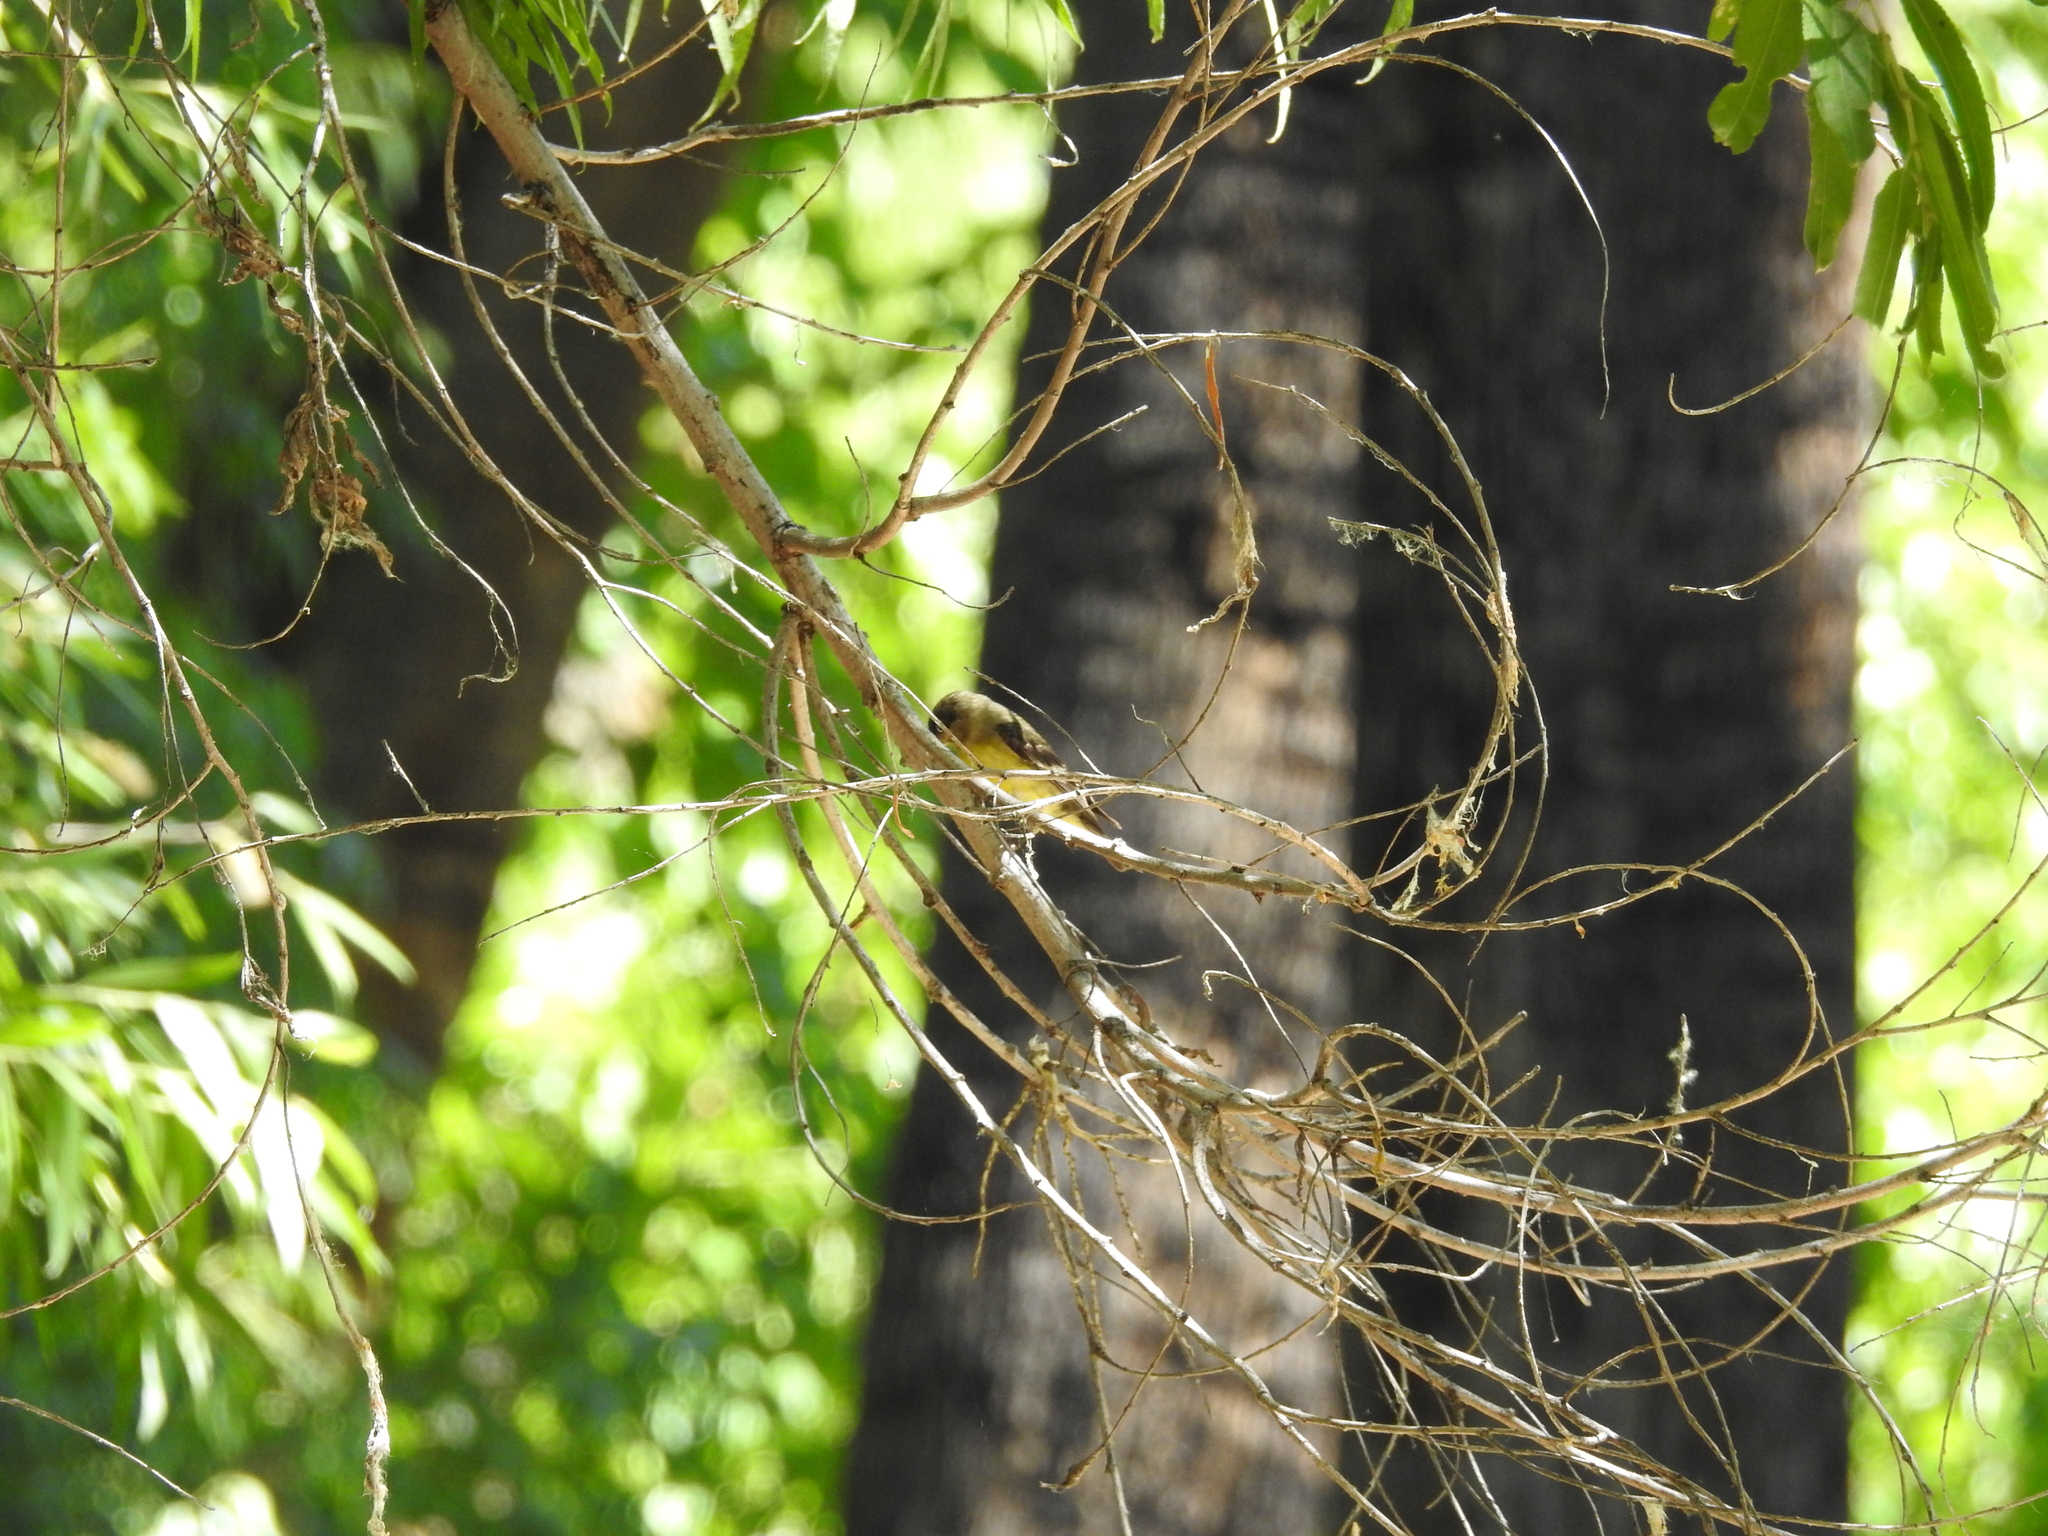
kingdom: Animalia
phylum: Chordata
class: Aves
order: Passeriformes
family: Fringillidae
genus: Spinus
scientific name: Spinus psaltria
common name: Lesser goldfinch
